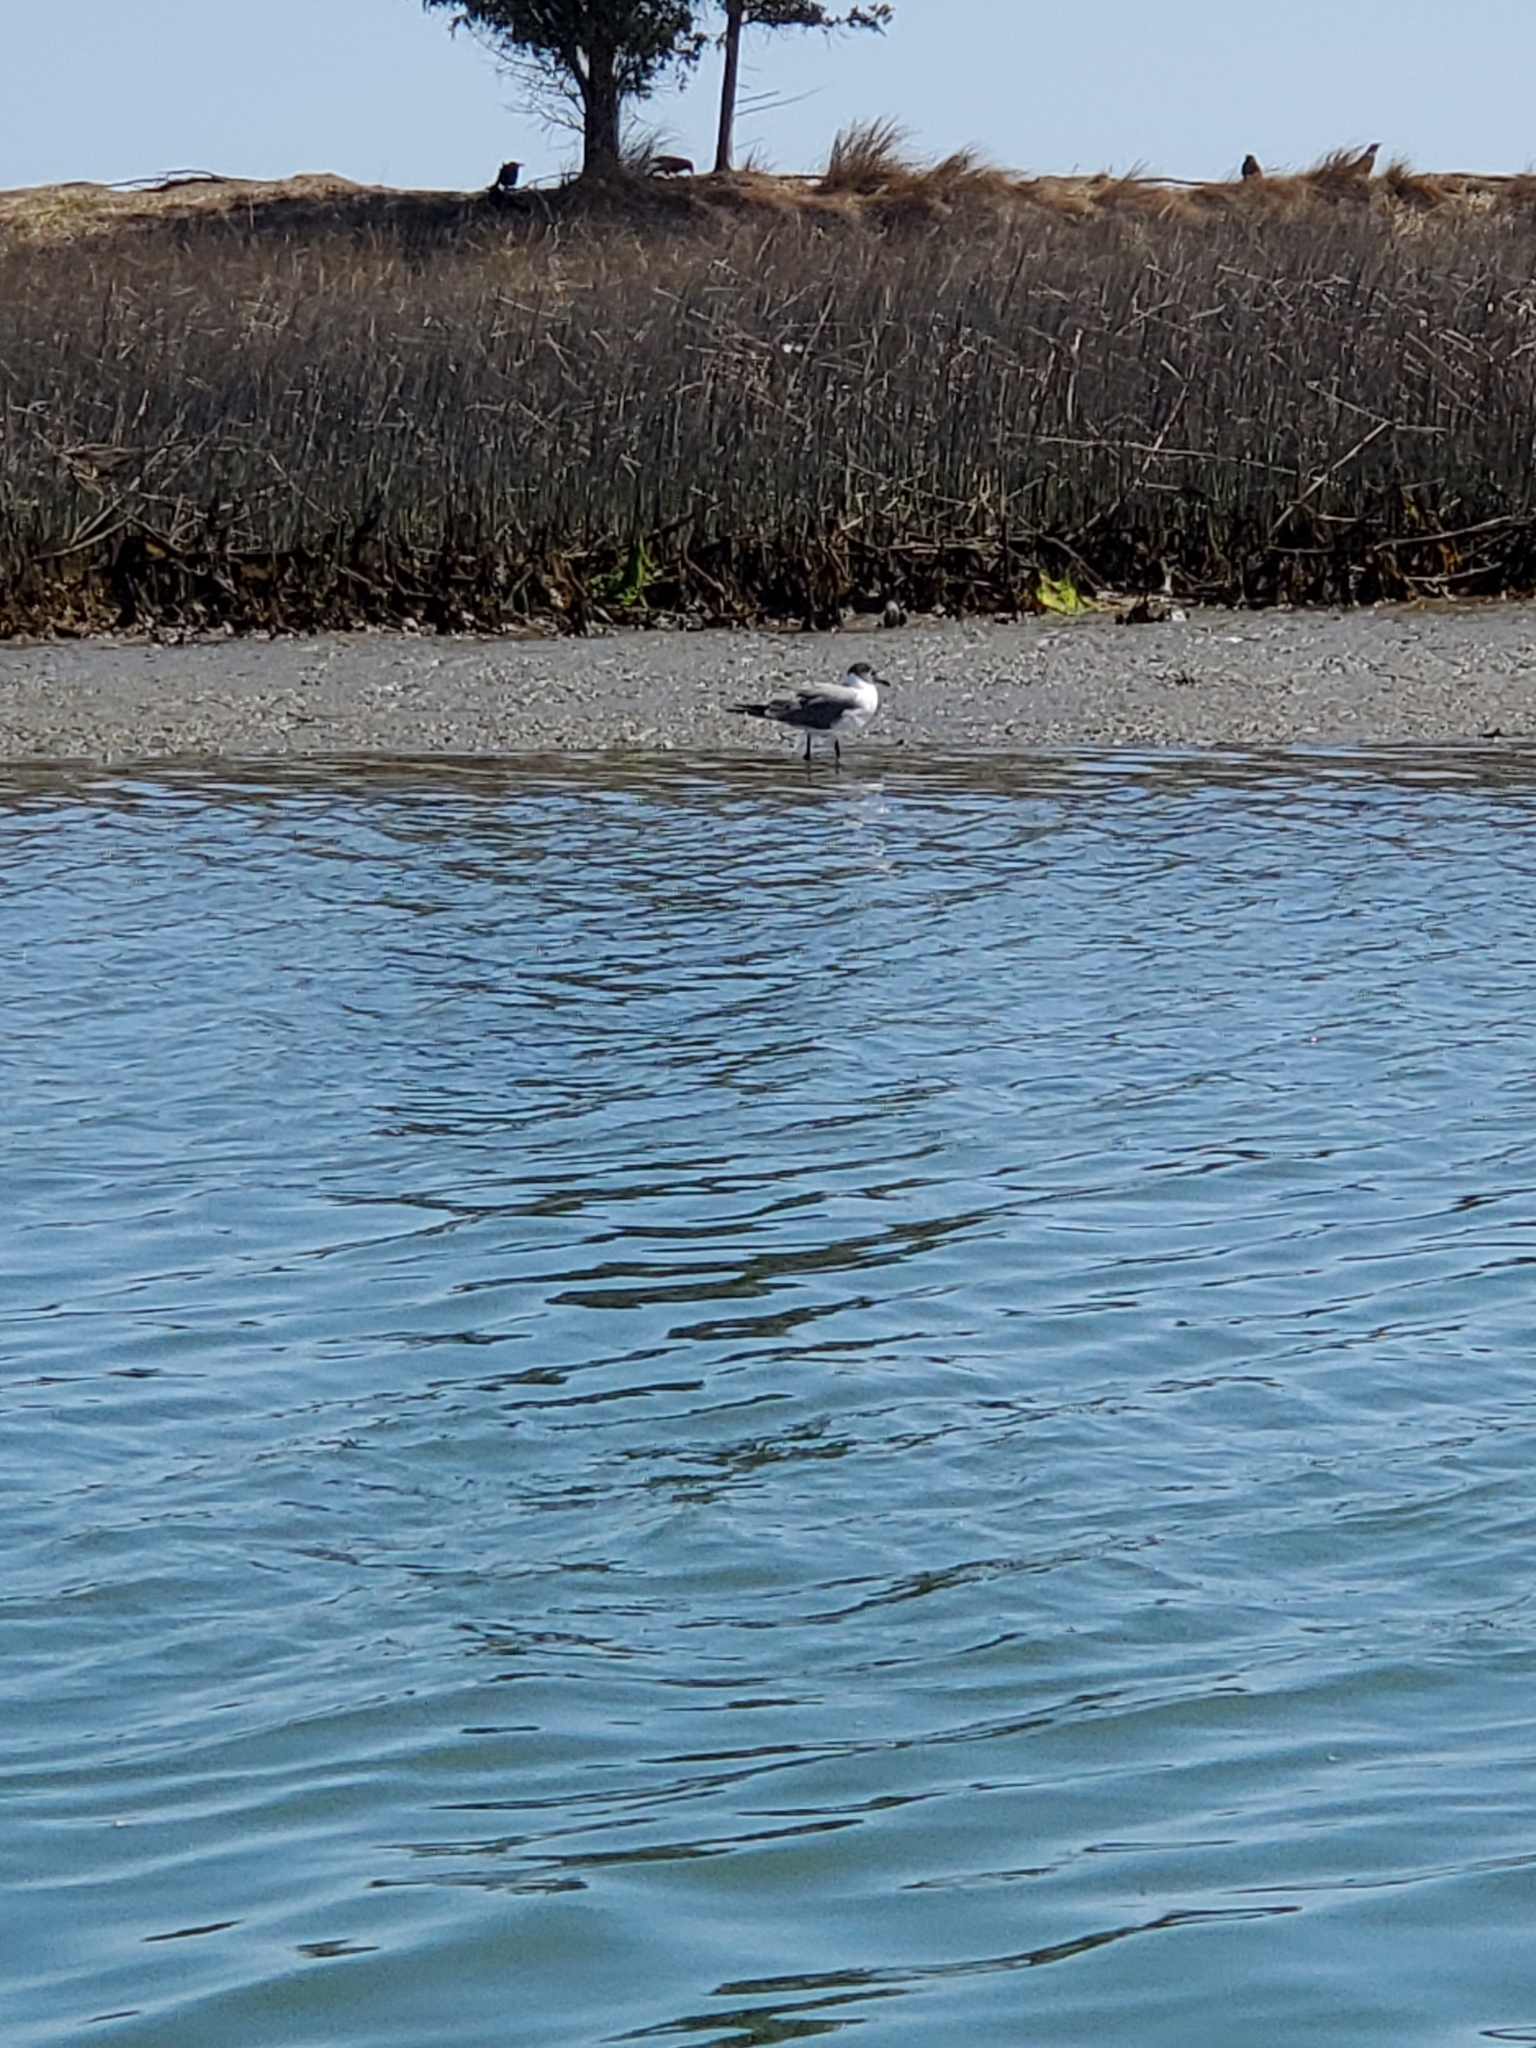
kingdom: Animalia
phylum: Chordata
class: Aves
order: Charadriiformes
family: Laridae
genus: Leucophaeus
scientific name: Leucophaeus atricilla
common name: Laughing gull
